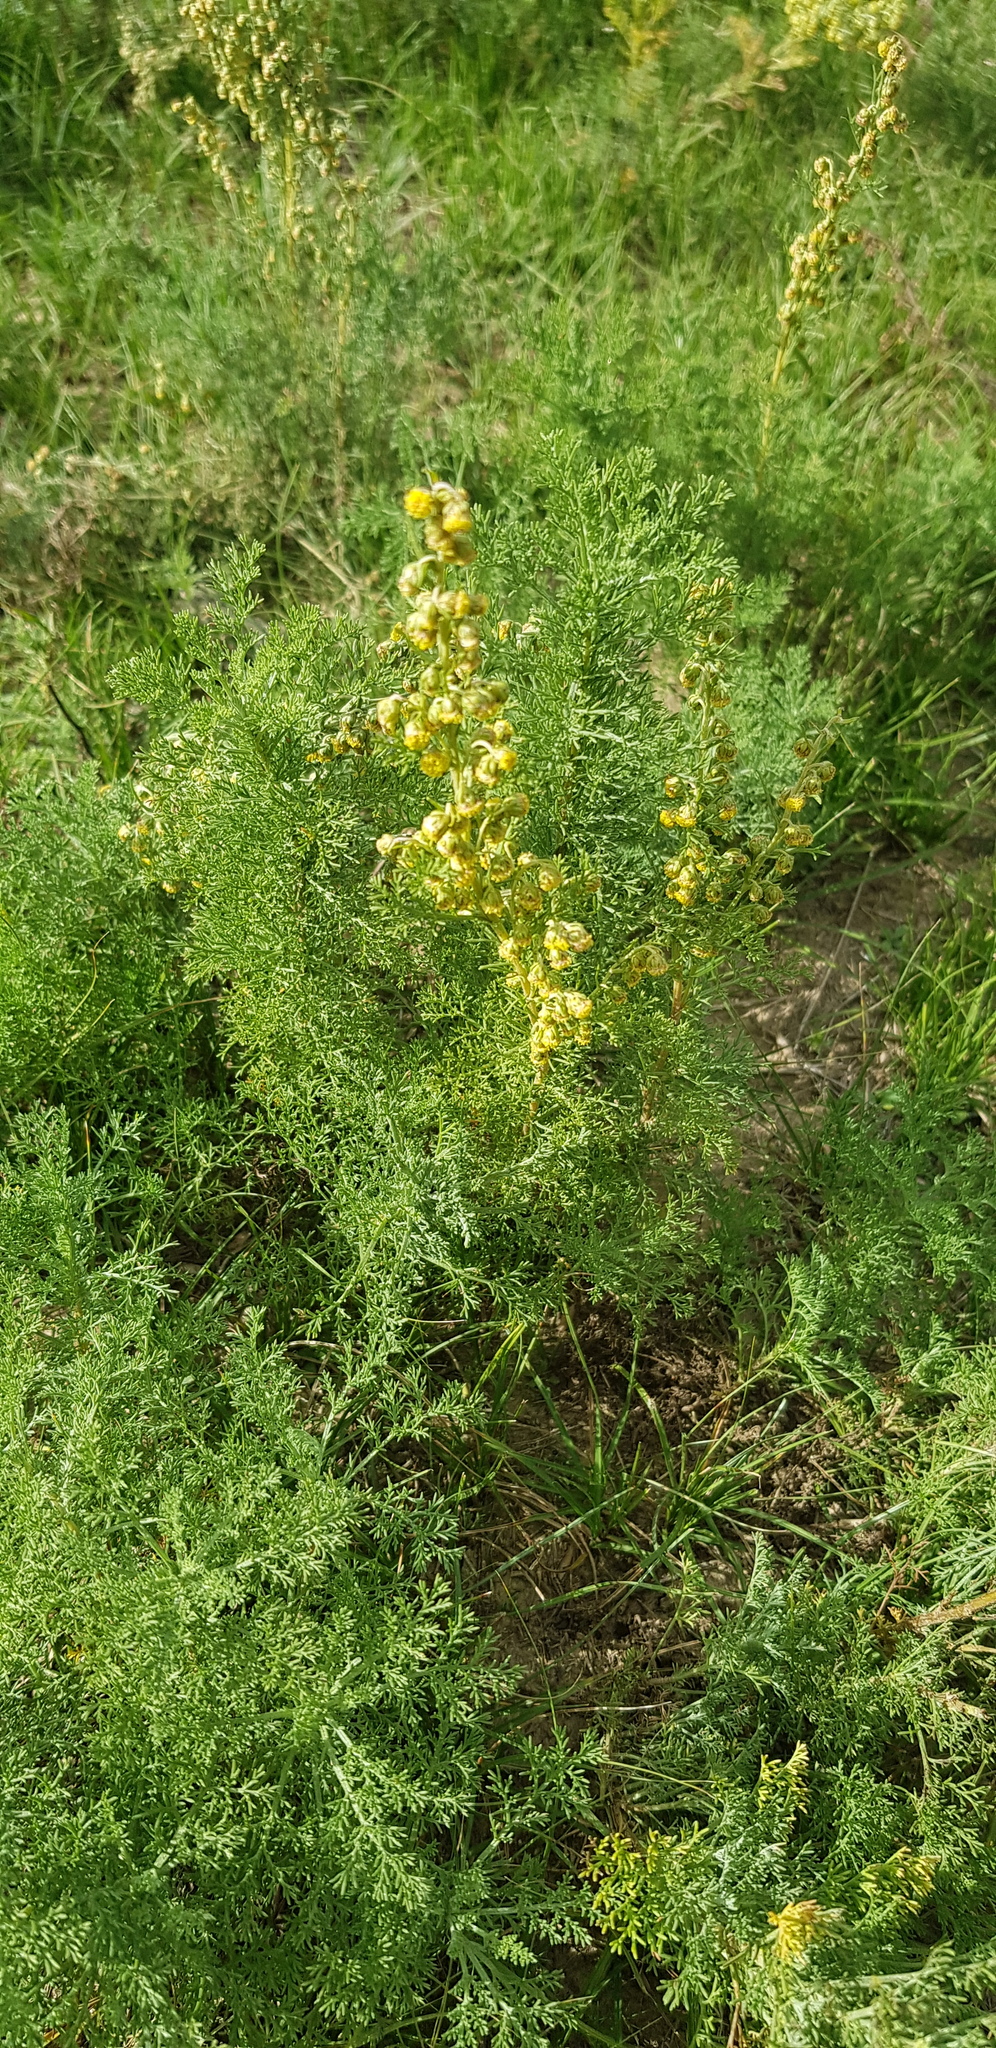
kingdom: Plantae
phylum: Tracheophyta
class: Magnoliopsida
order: Asterales
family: Asteraceae
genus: Artemisia
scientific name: Artemisia adamsii
